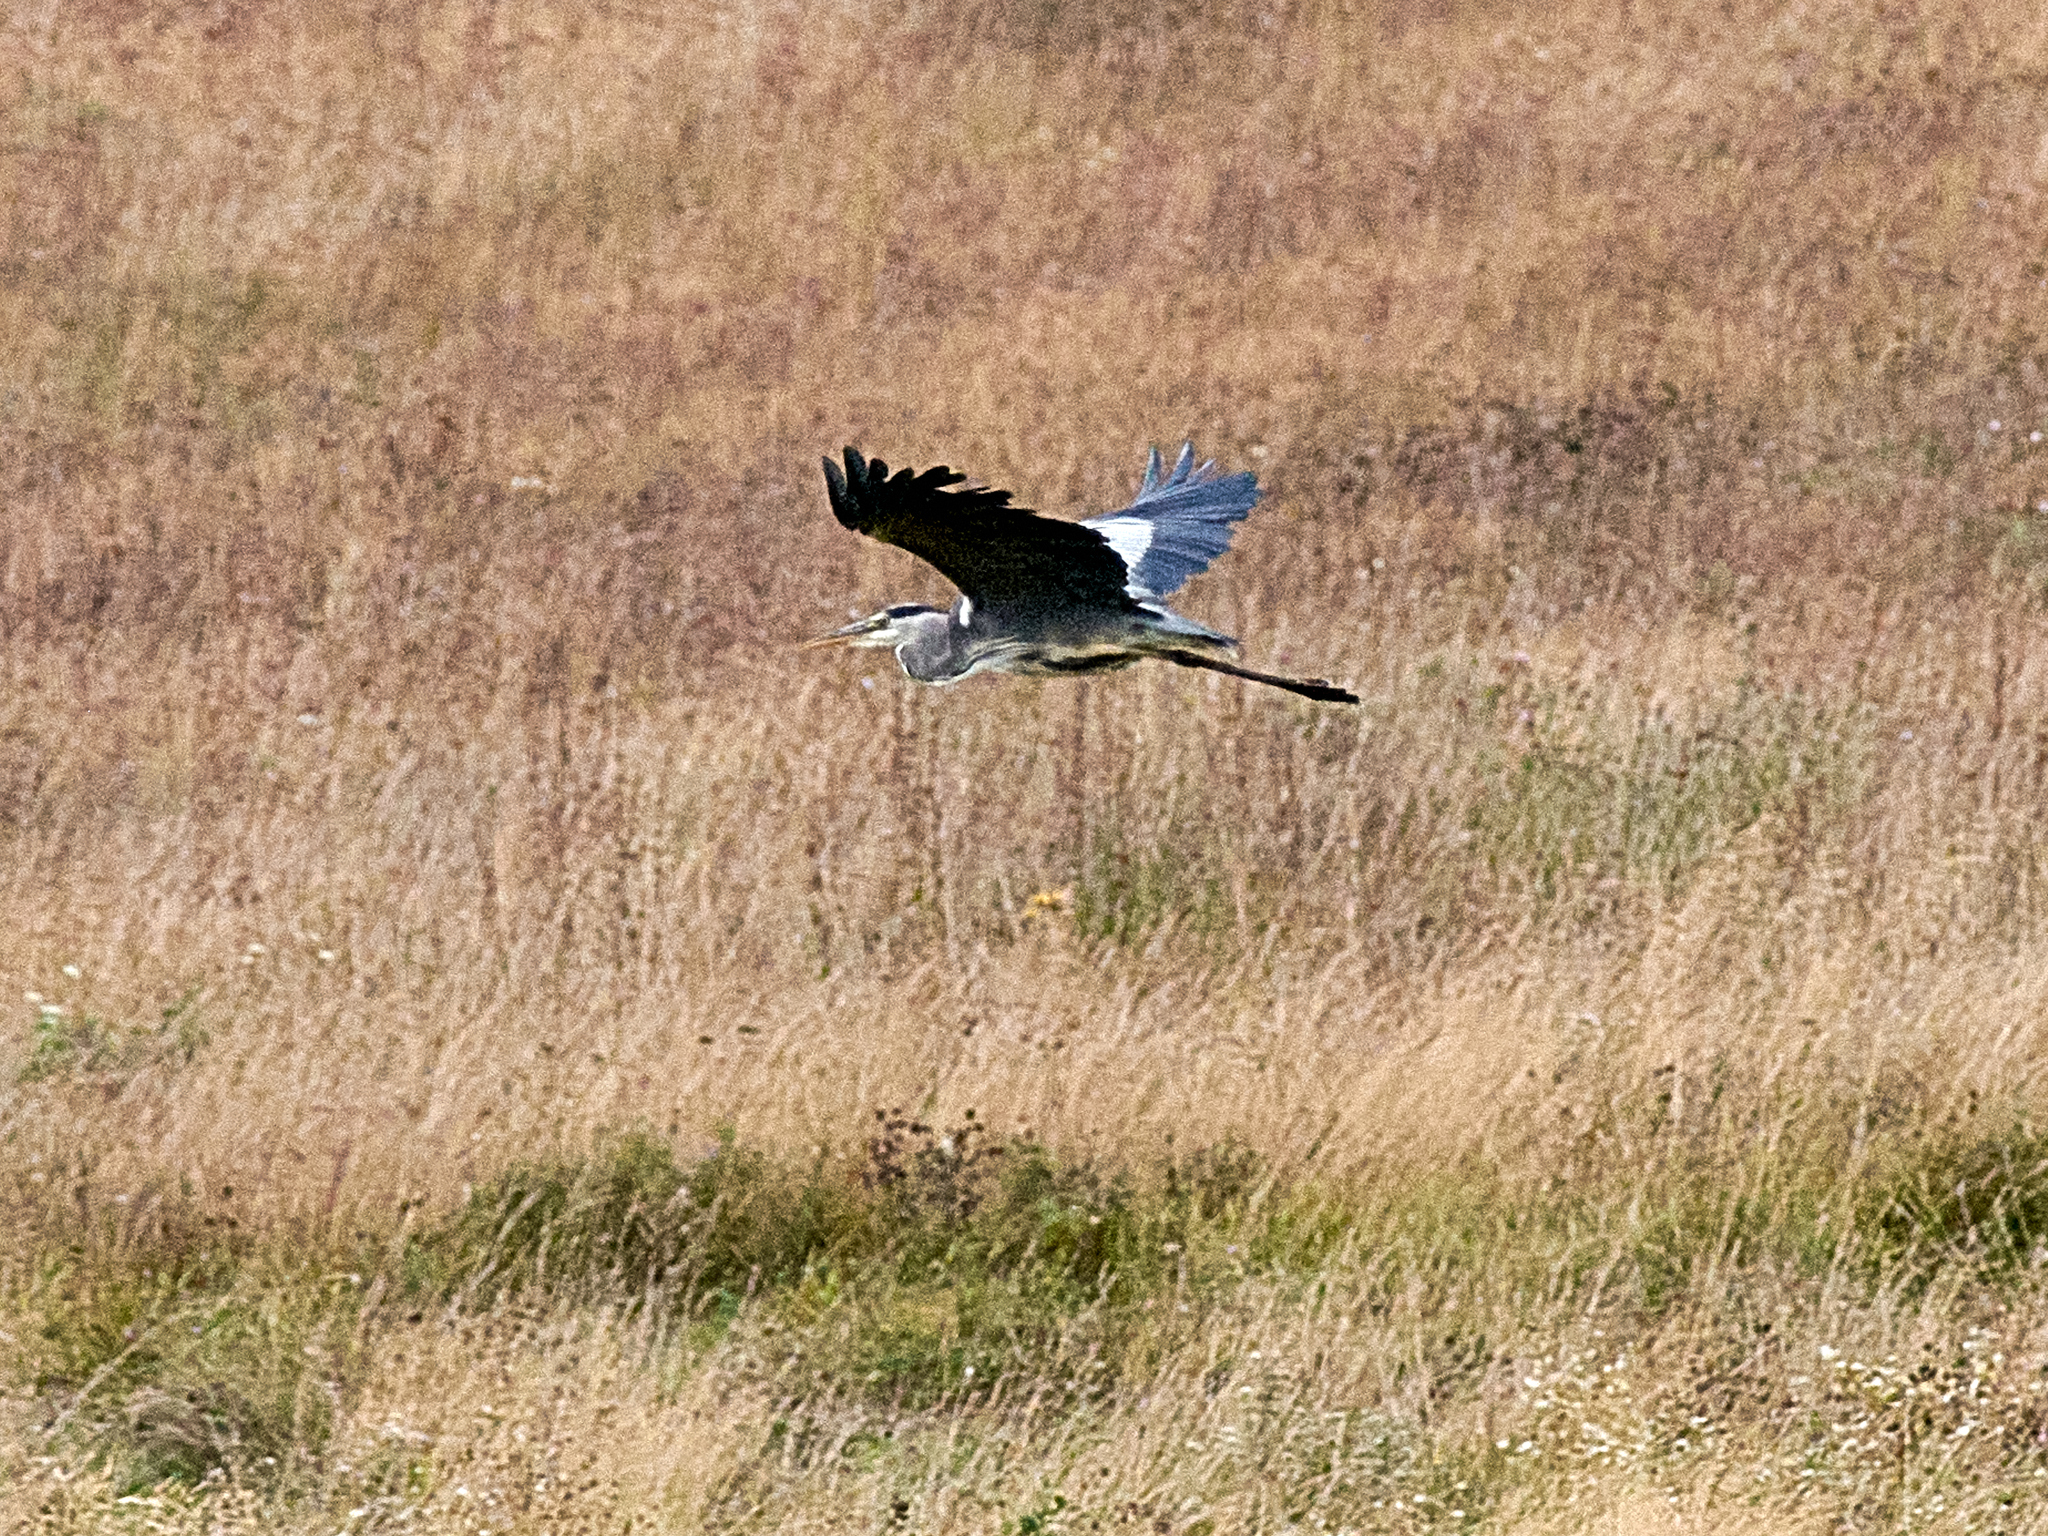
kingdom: Animalia
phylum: Chordata
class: Aves
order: Pelecaniformes
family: Ardeidae
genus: Ardea
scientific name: Ardea cinerea
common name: Grey heron
